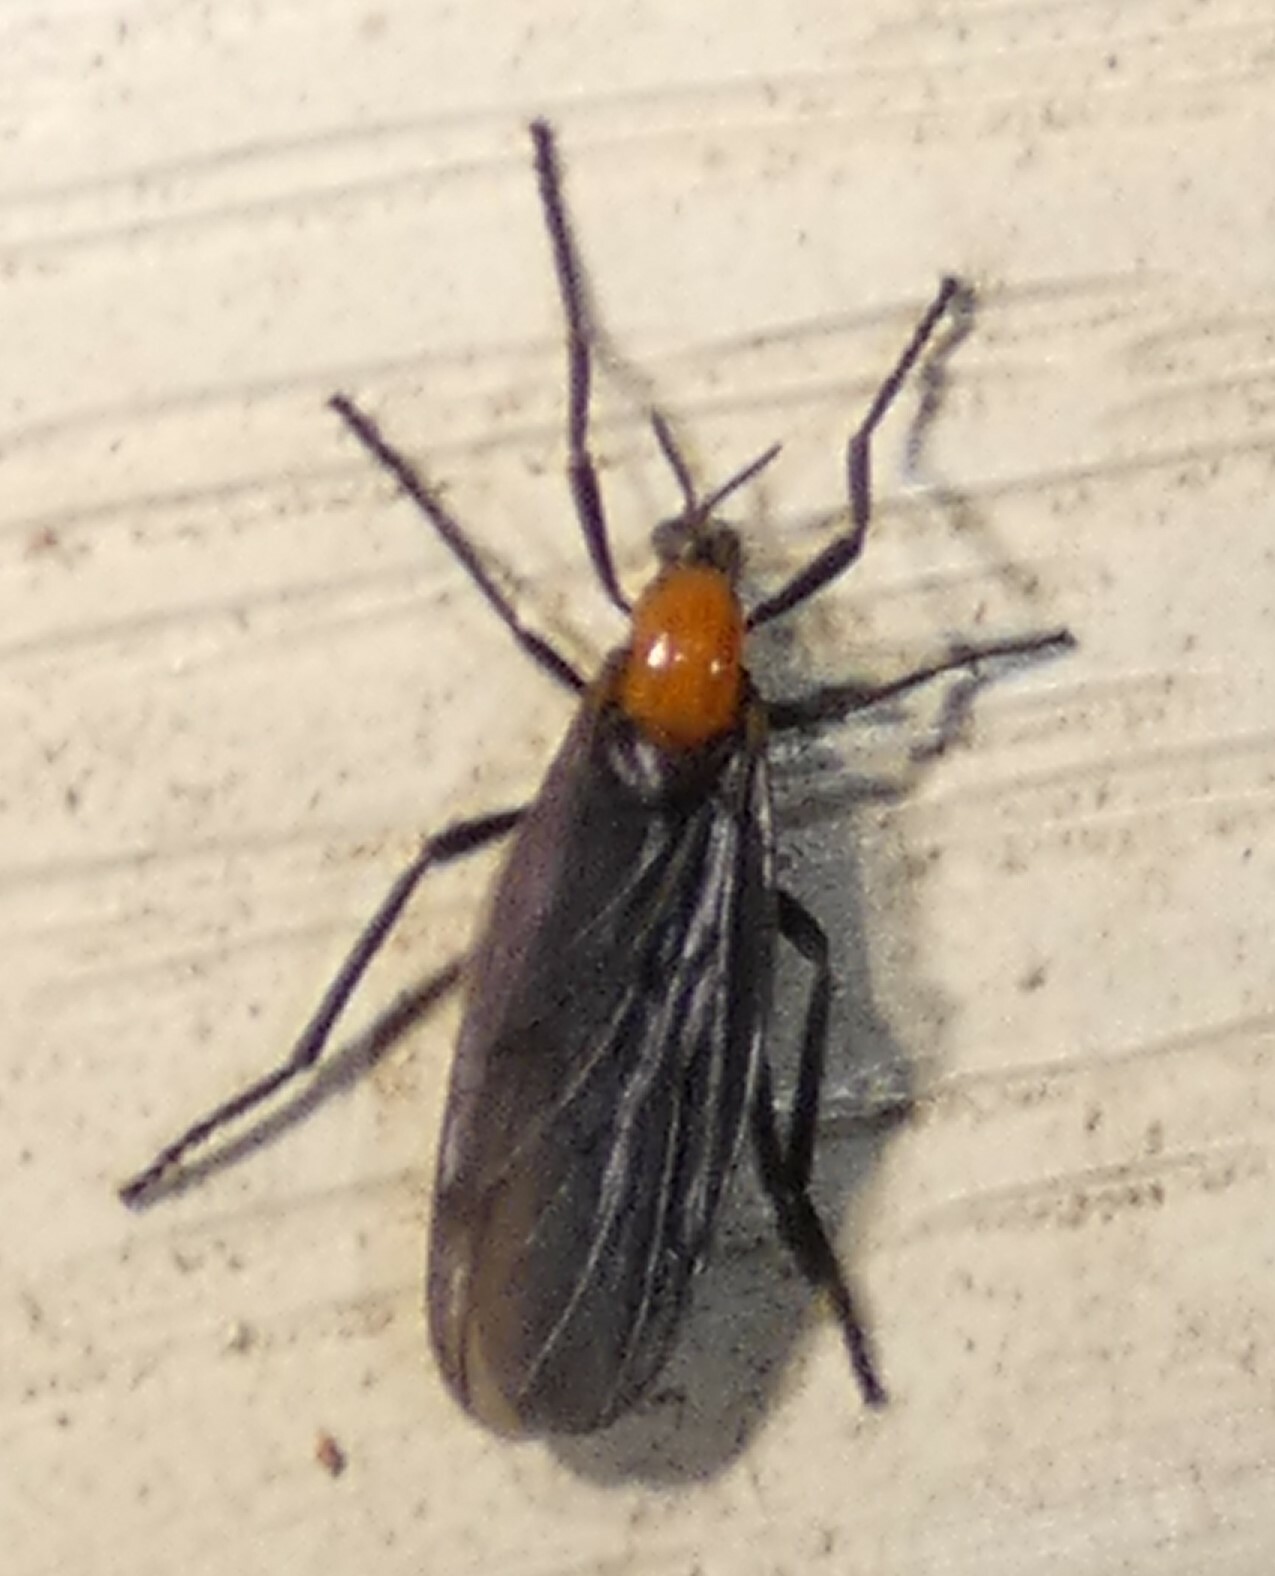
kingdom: Animalia
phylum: Arthropoda
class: Insecta
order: Diptera
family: Bibionidae
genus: Plecia
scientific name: Plecia nearctica
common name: March fly
